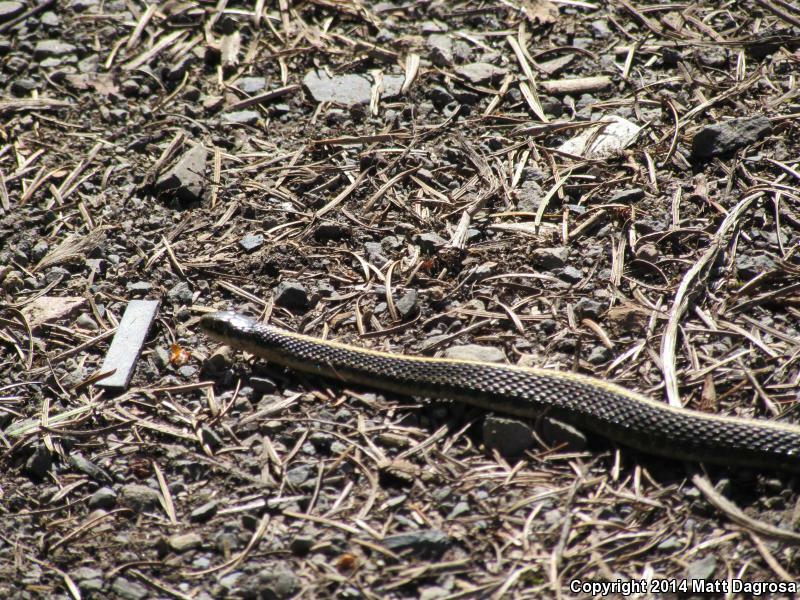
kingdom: Animalia
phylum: Chordata
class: Squamata
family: Colubridae
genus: Thamnophis
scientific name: Thamnophis ordinoides
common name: Northwestern garter snake
